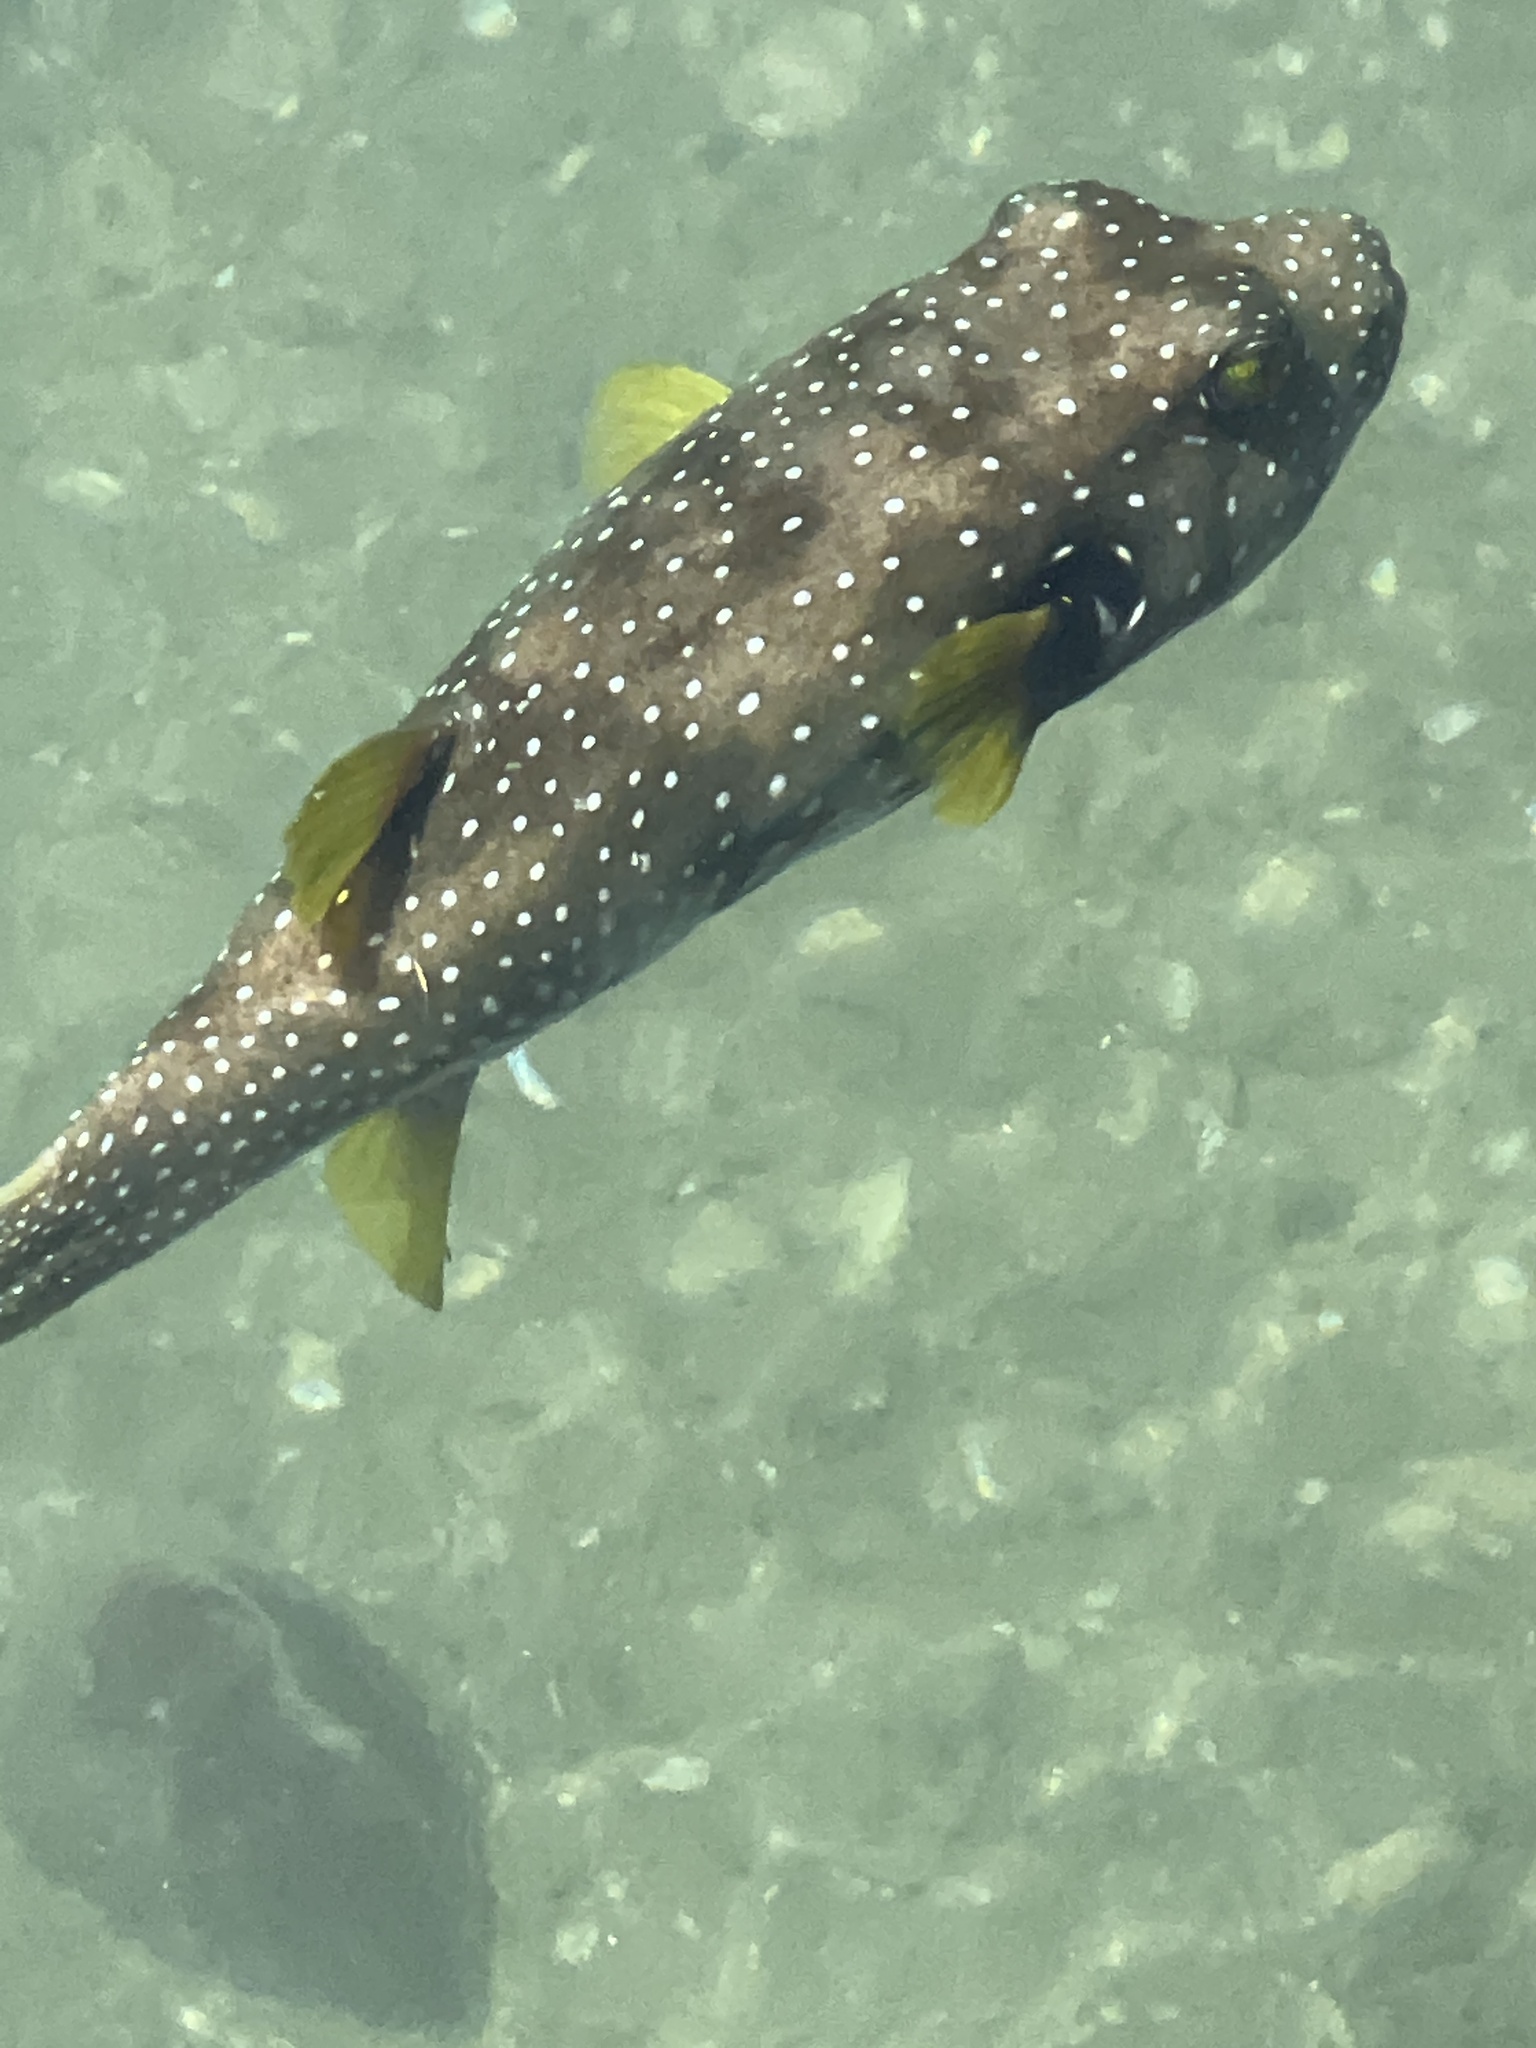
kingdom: Animalia
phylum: Chordata
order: Tetraodontiformes
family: Tetraodontidae
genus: Arothron
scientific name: Arothron hispidus
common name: Stripebelly puffer
